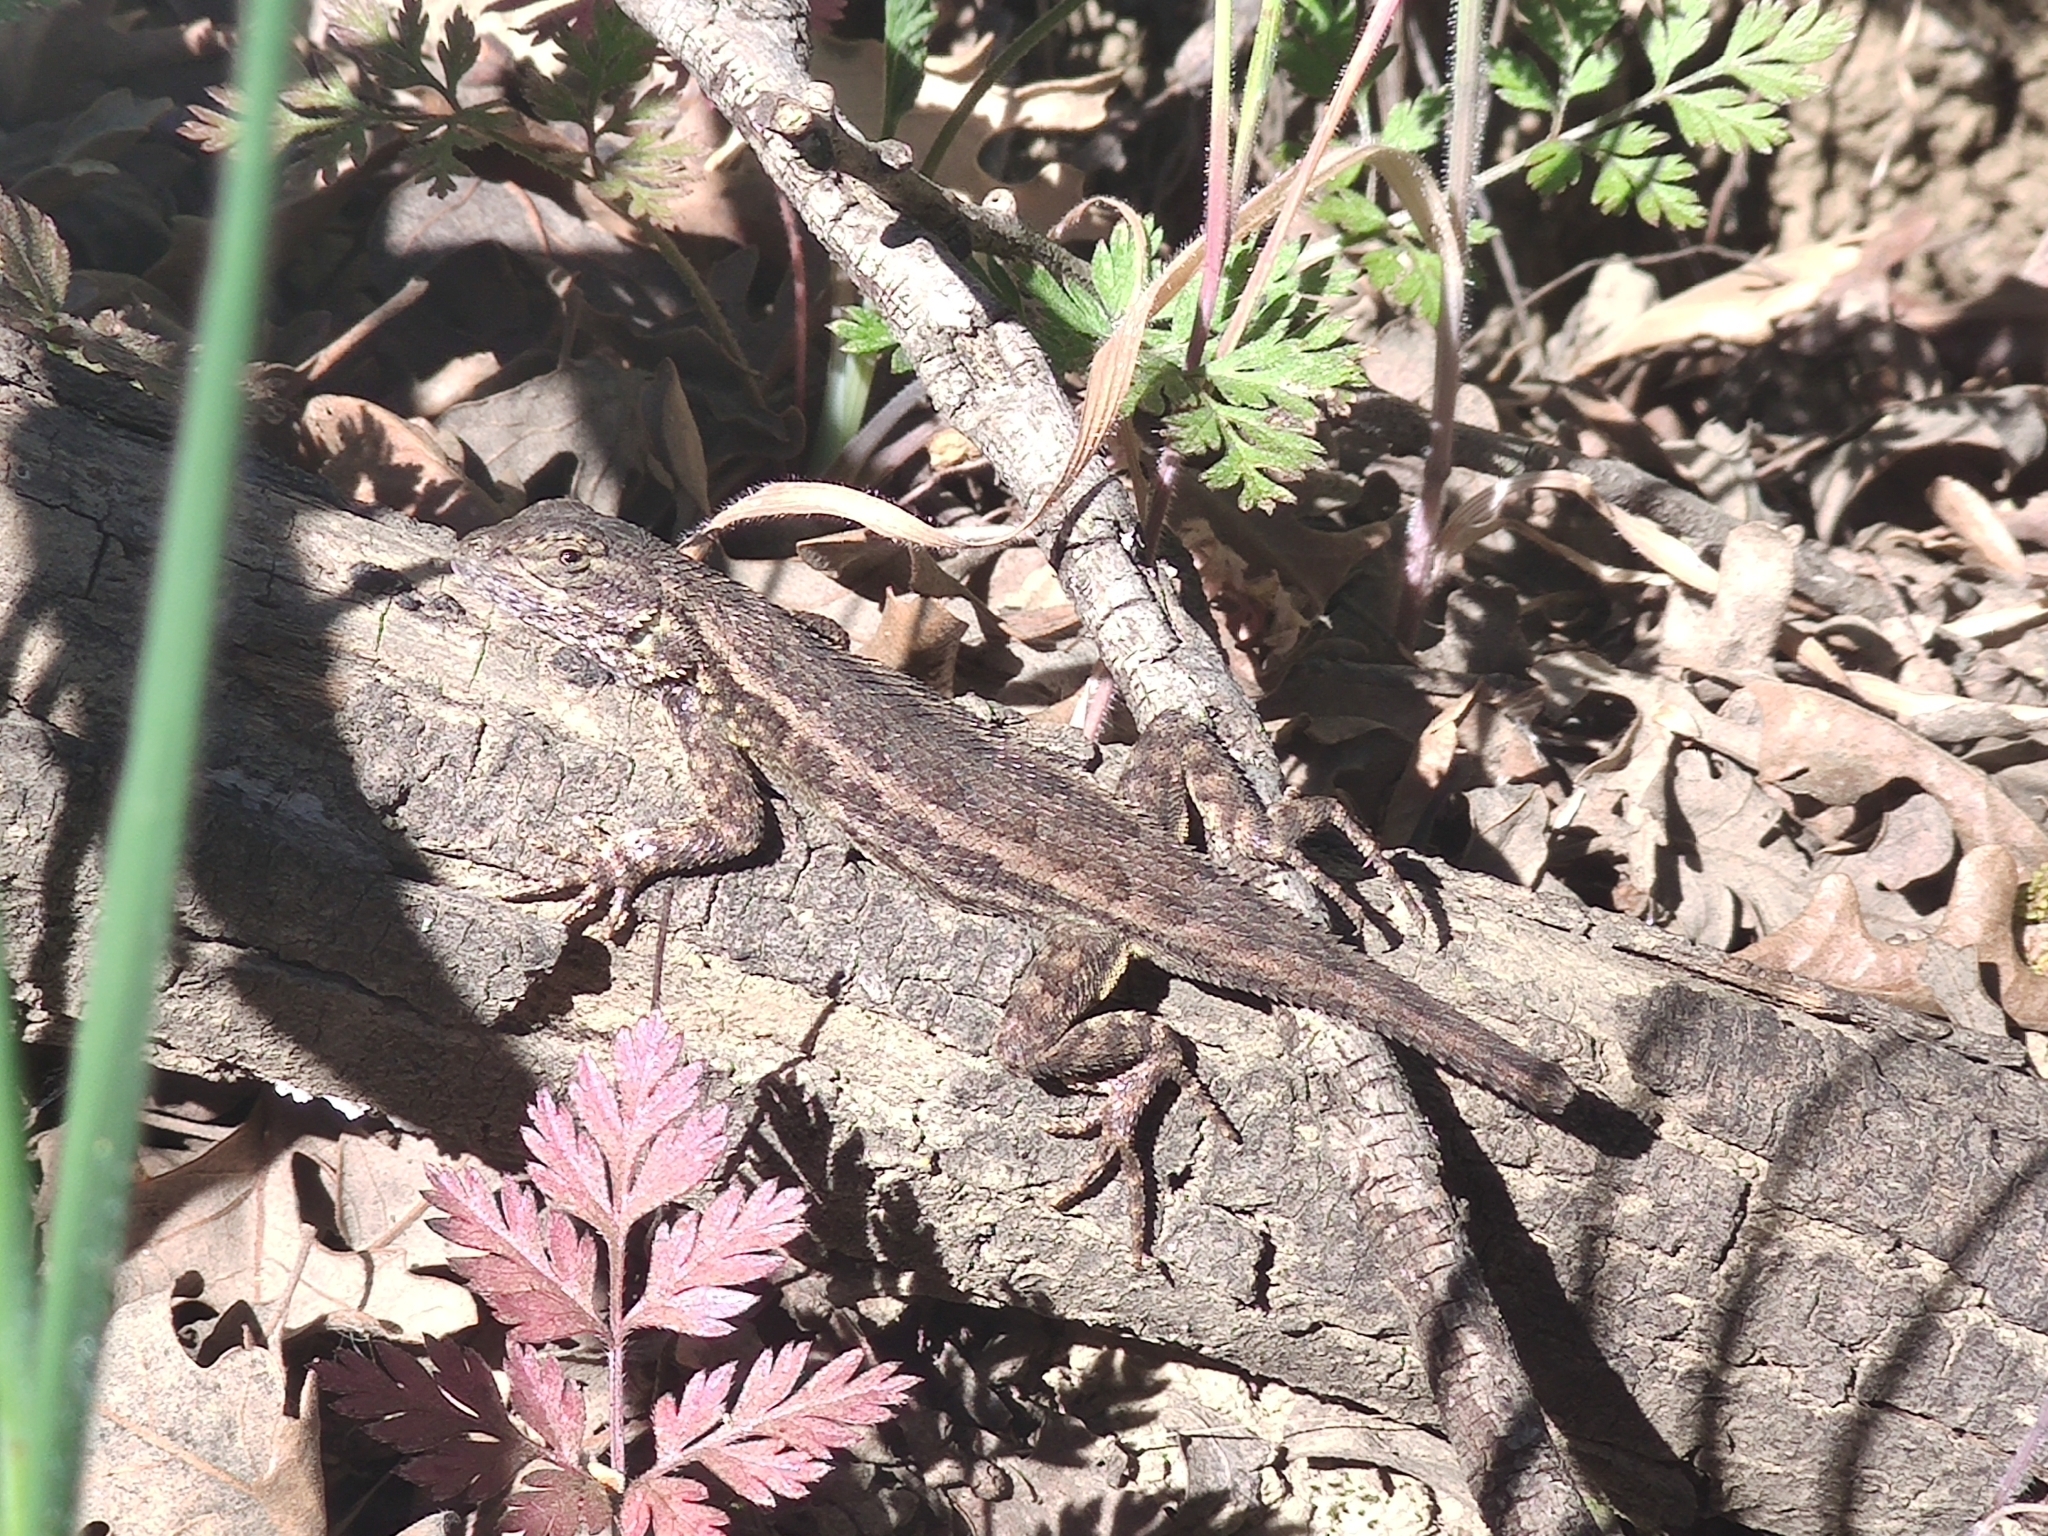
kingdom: Animalia
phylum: Chordata
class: Squamata
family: Phrynosomatidae
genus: Sceloporus
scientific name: Sceloporus occidentalis
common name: Western fence lizard
